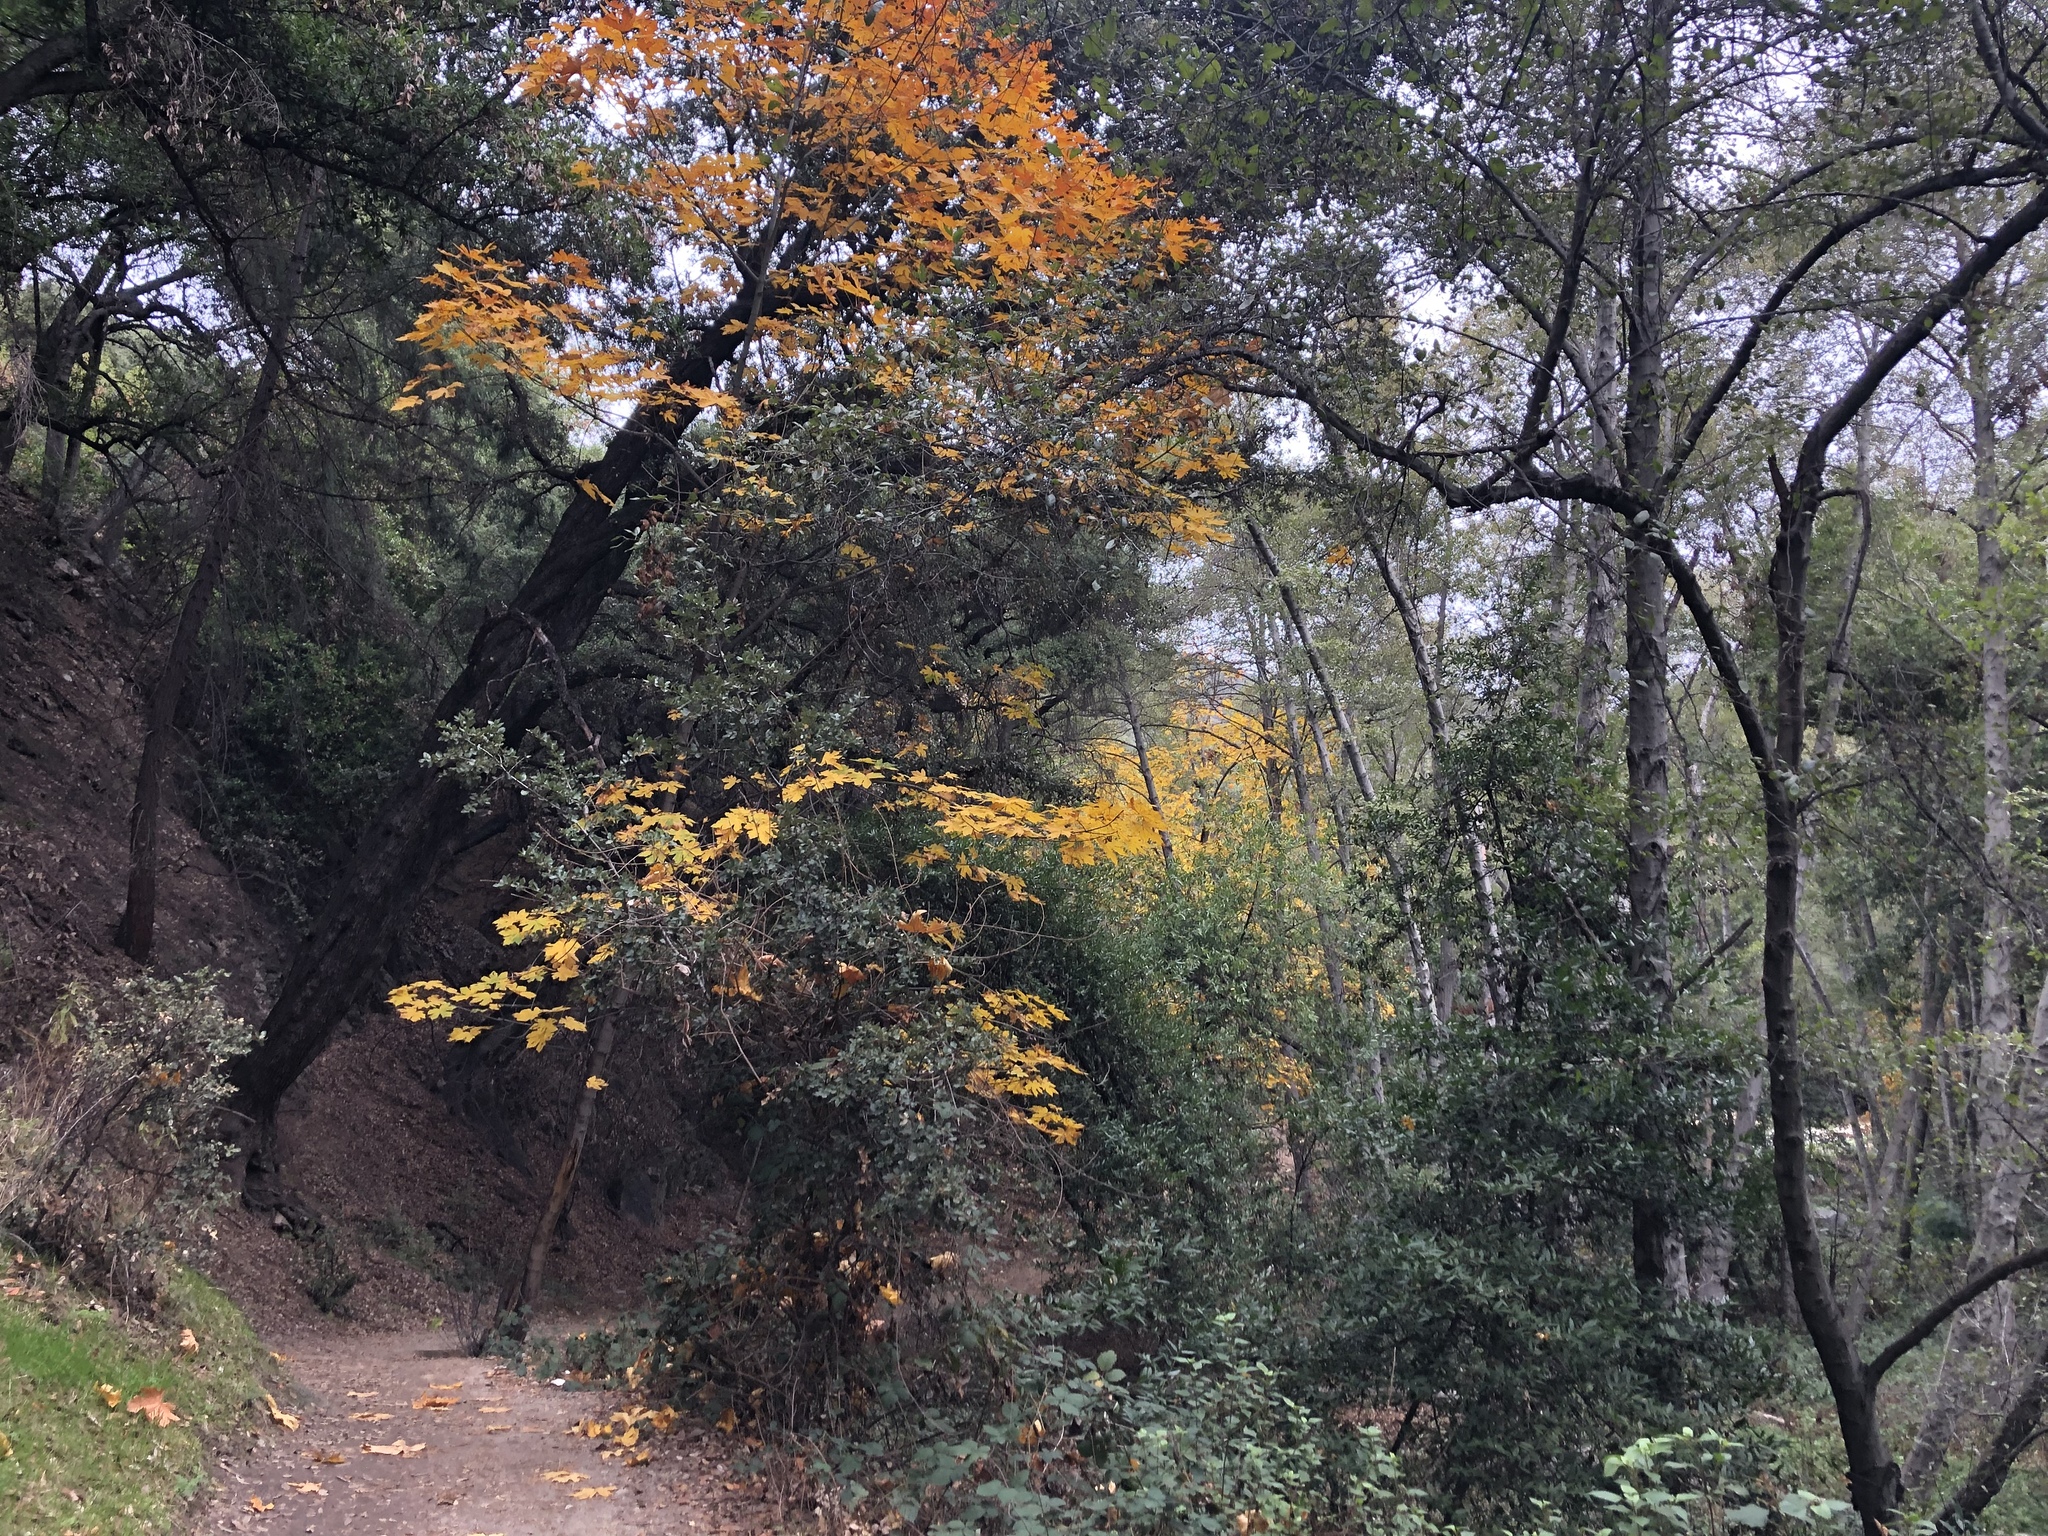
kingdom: Plantae
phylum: Tracheophyta
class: Magnoliopsida
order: Sapindales
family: Sapindaceae
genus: Acer
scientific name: Acer macrophyllum
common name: Oregon maple
